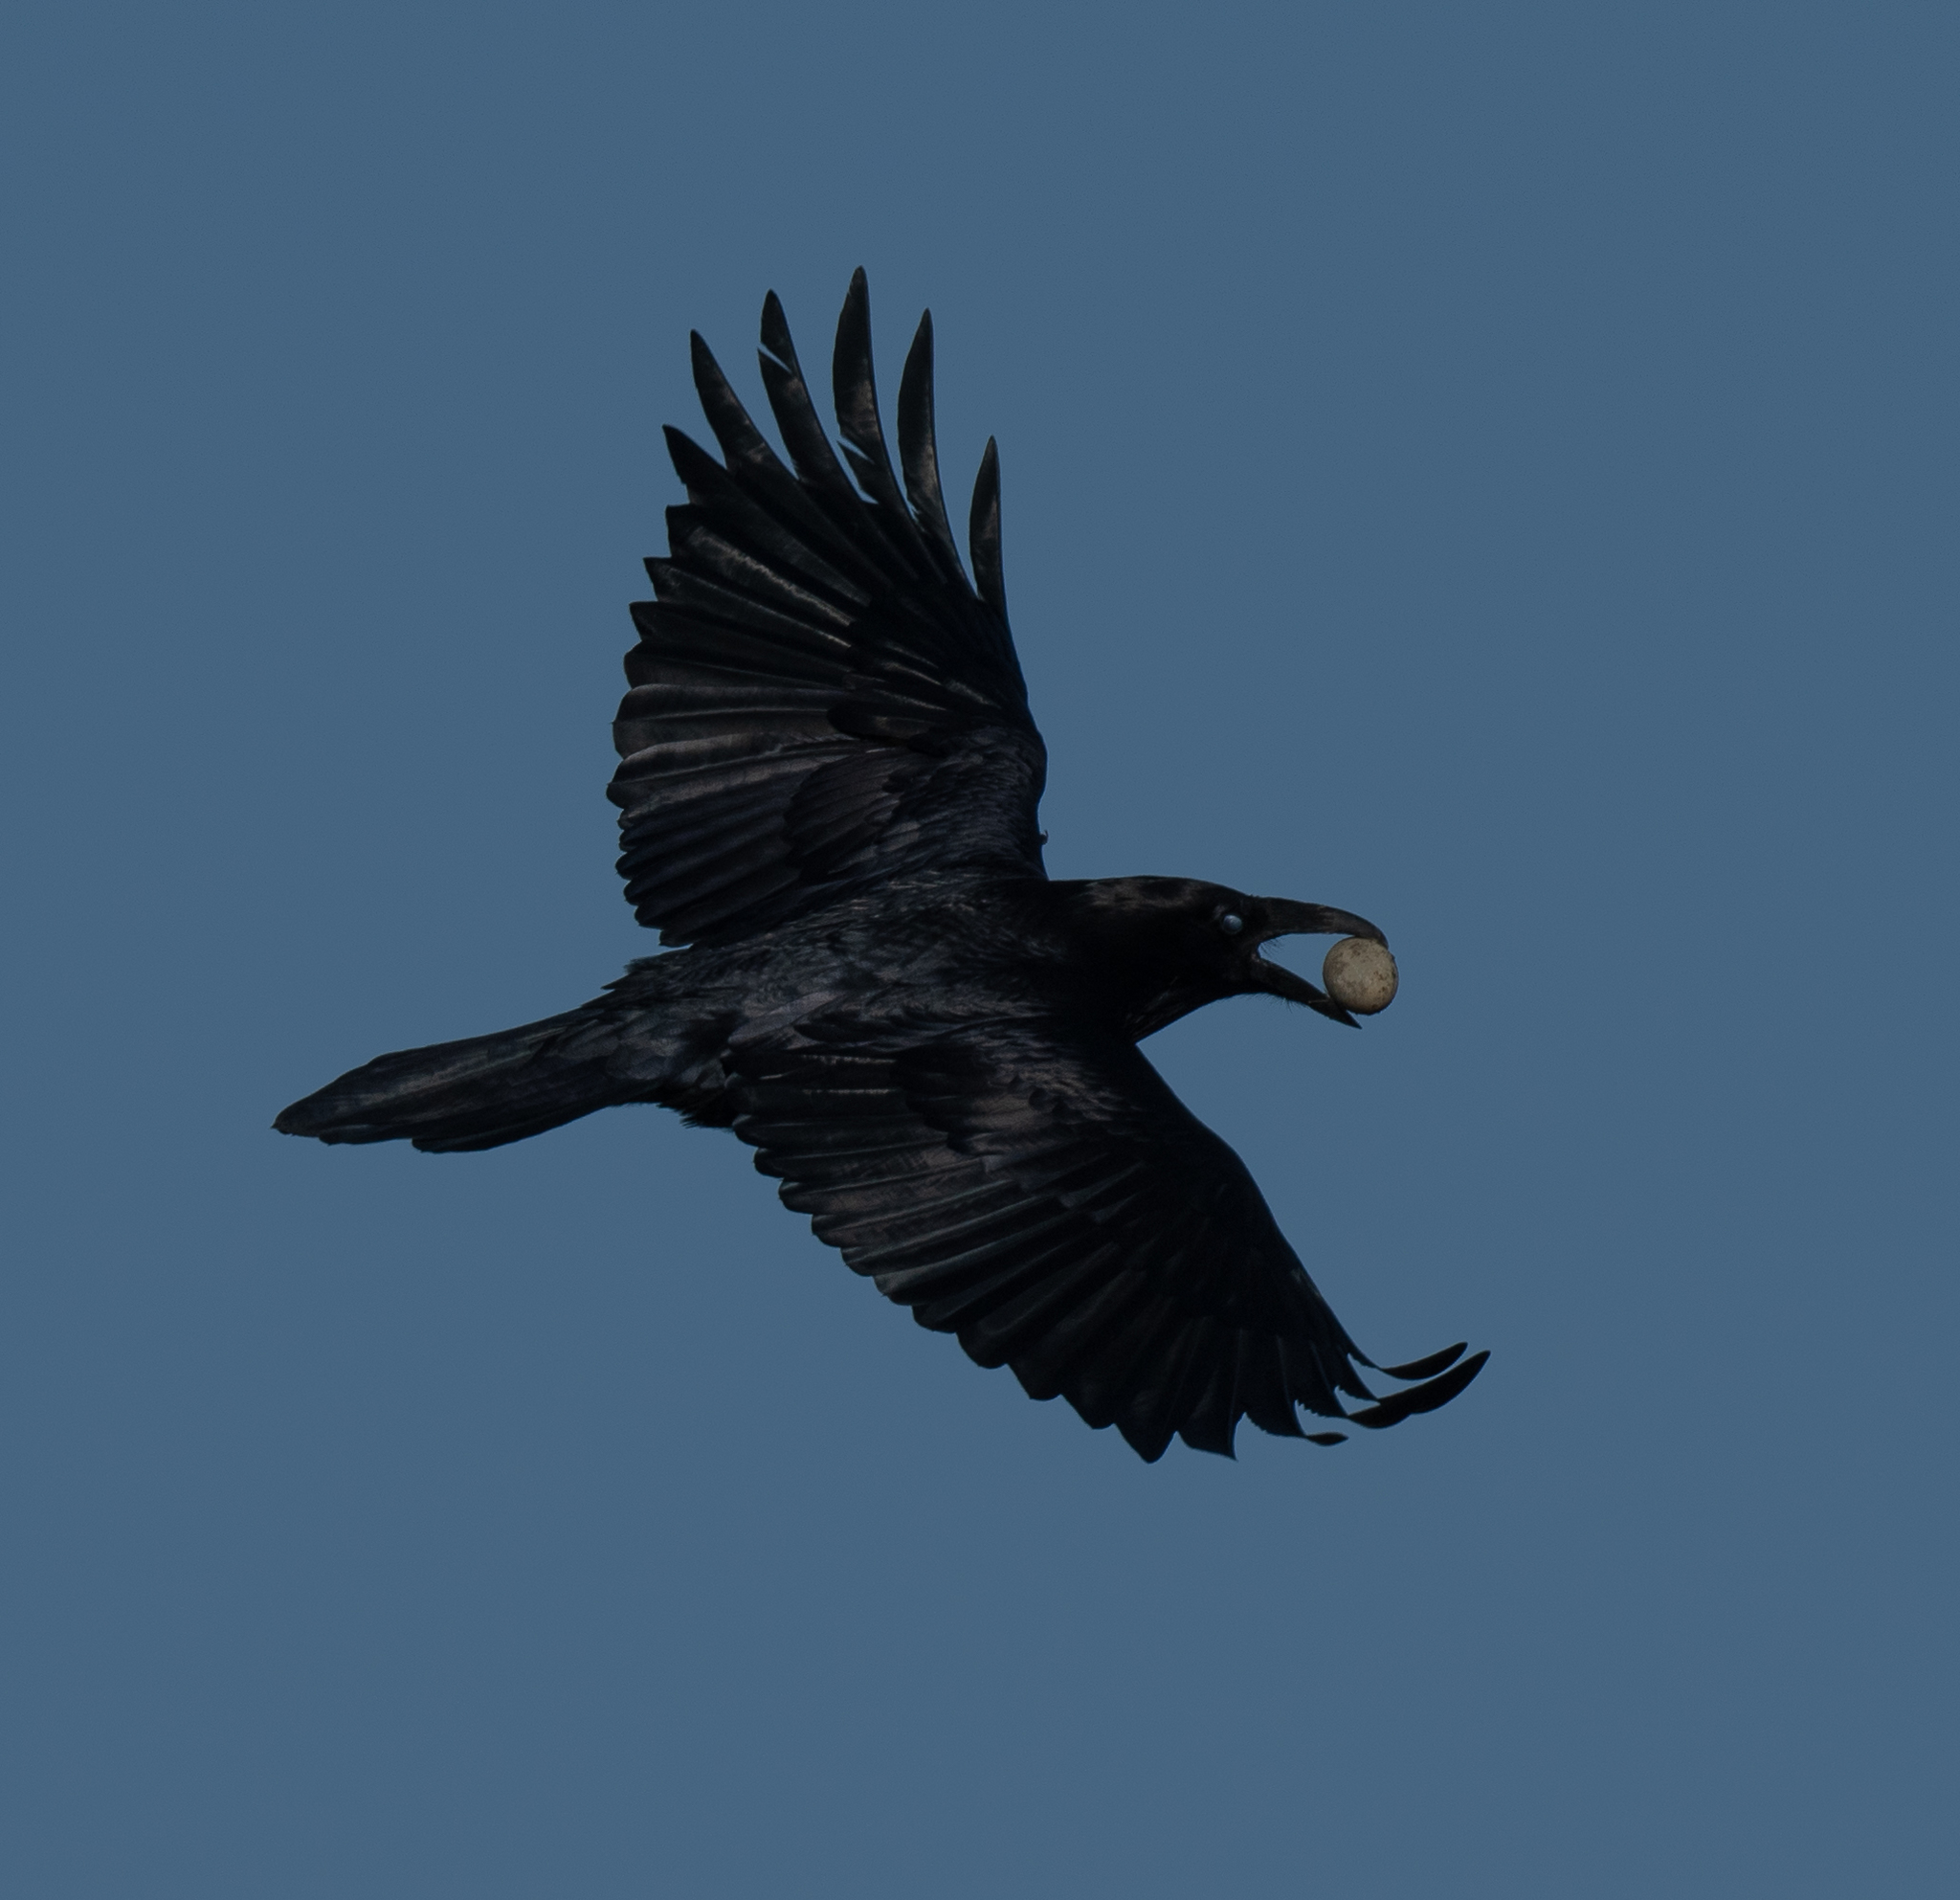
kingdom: Animalia
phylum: Chordata
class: Aves
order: Passeriformes
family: Corvidae
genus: Corvus
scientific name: Corvus corax
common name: Common raven
